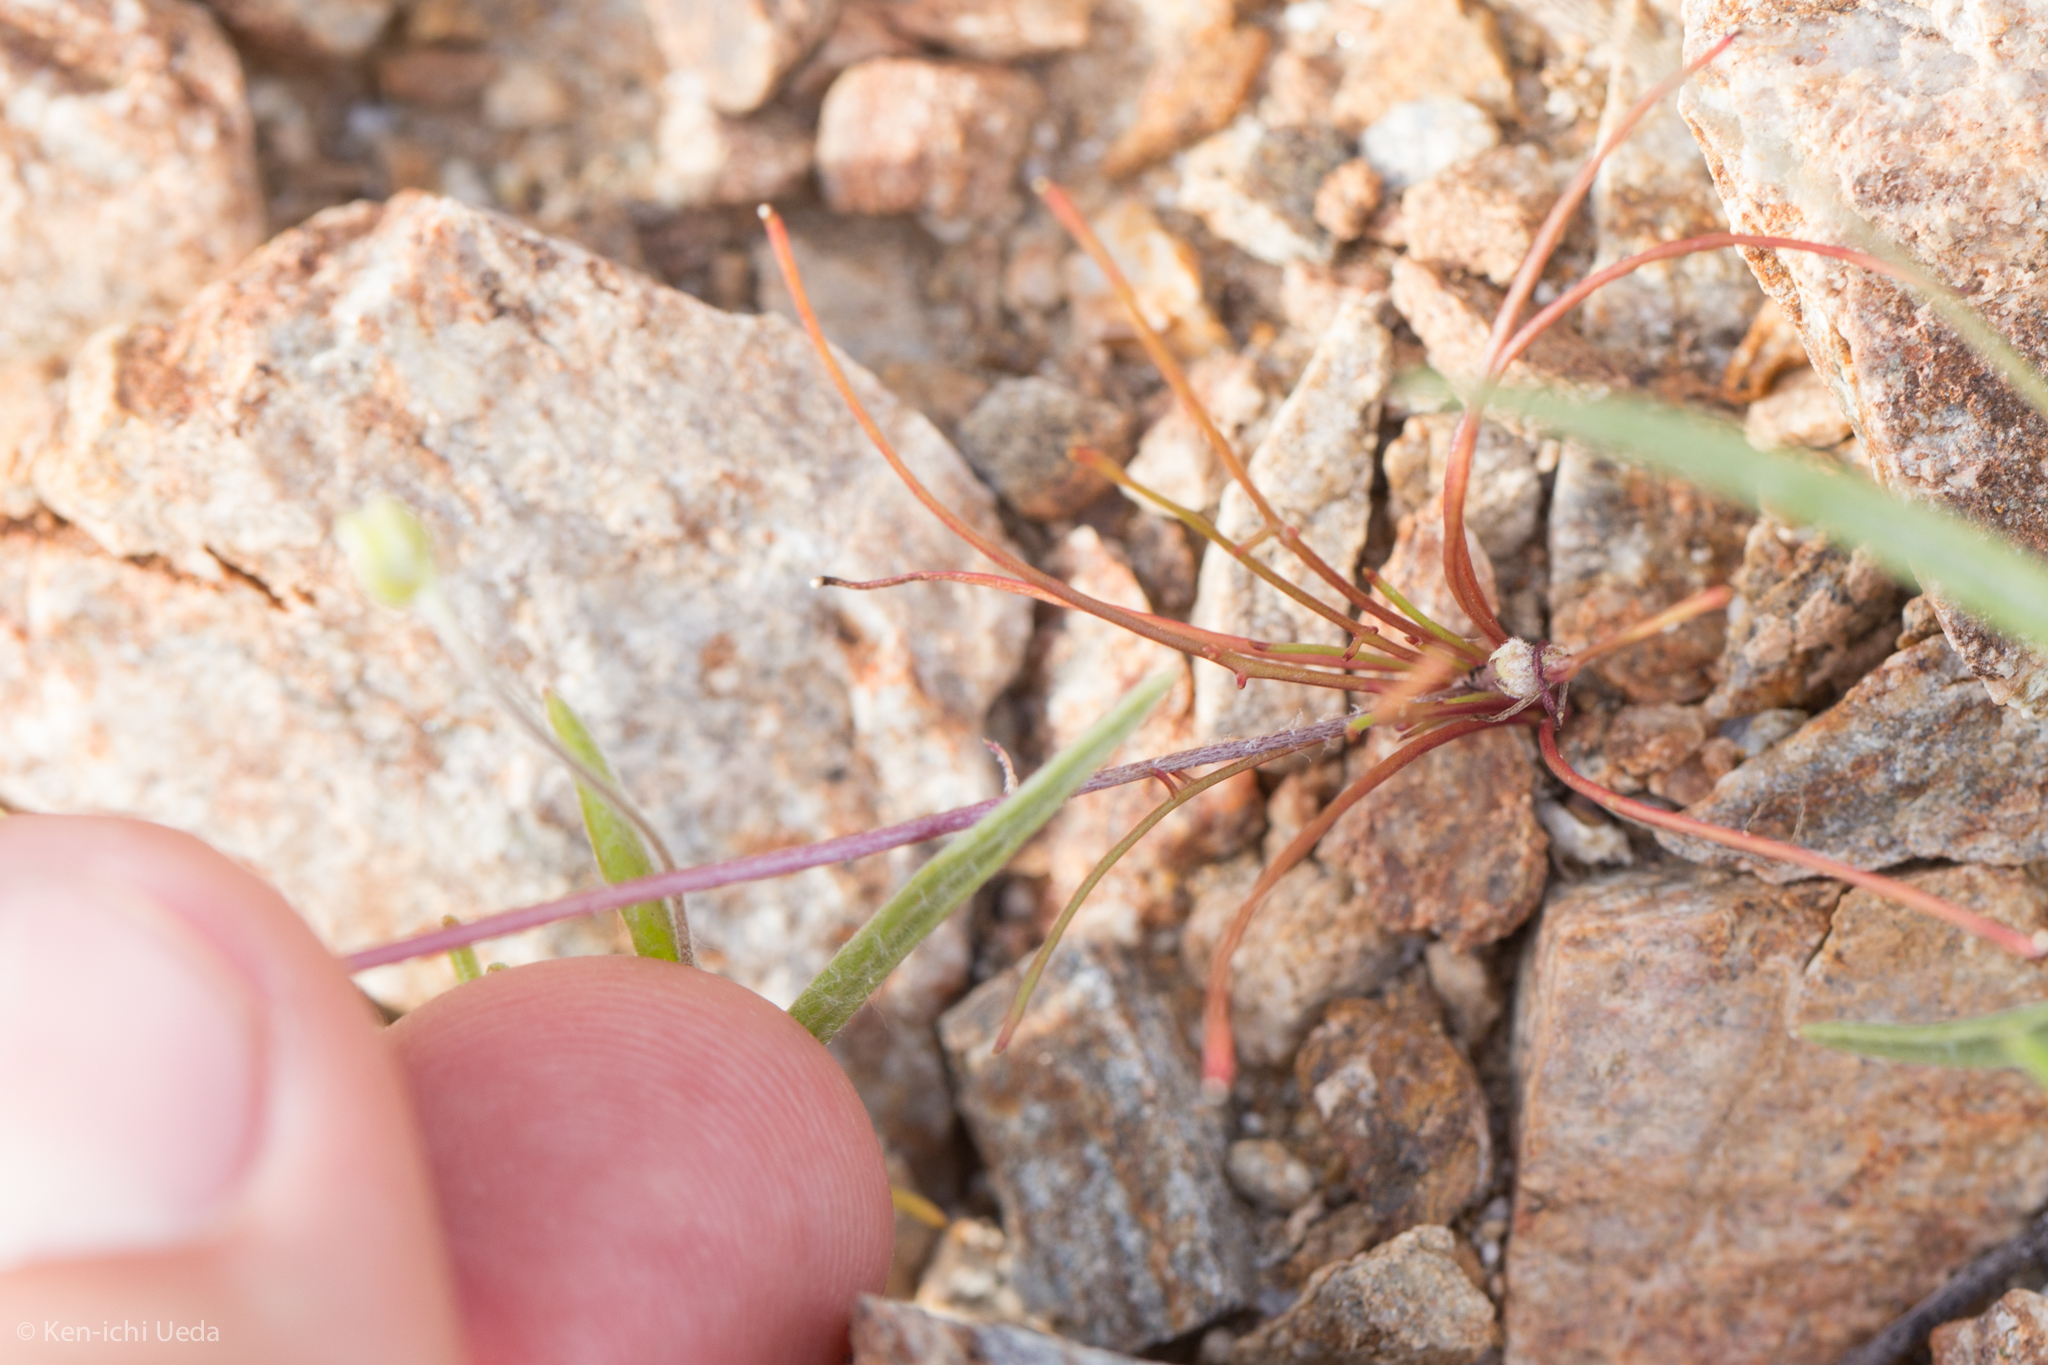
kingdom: Plantae
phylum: Tracheophyta
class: Magnoliopsida
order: Asterales
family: Asteraceae
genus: Malacothrix
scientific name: Malacothrix glabrata
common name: Smooth desert-dandelion
